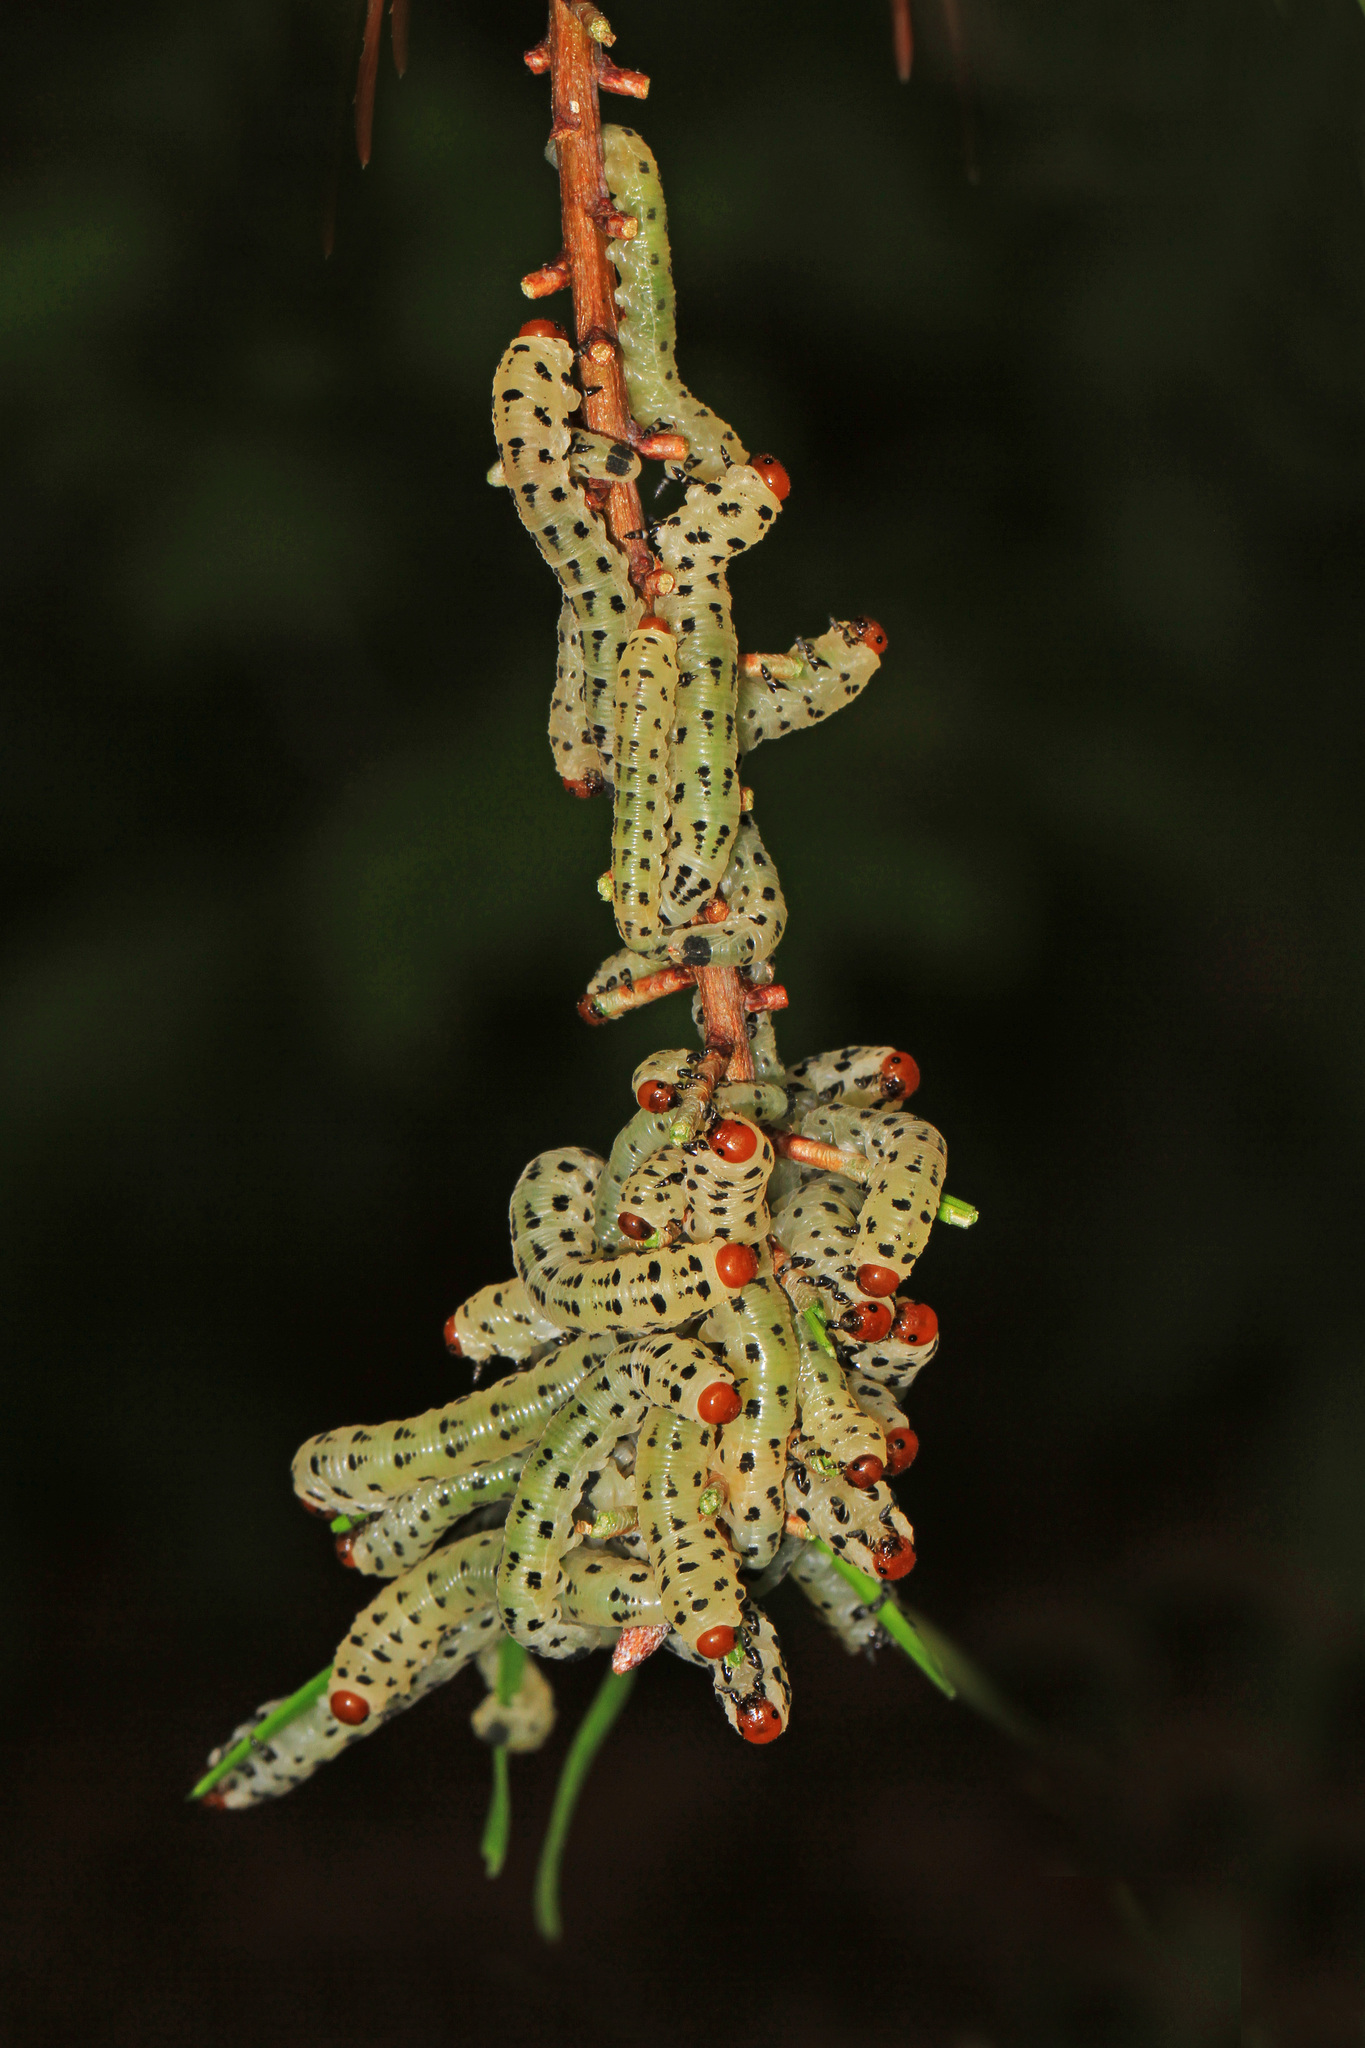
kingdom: Animalia
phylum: Arthropoda
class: Insecta
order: Hymenoptera
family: Diprionidae
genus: Neodiprion
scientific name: Neodiprion lecontei
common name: Redheaded pine sawfly
